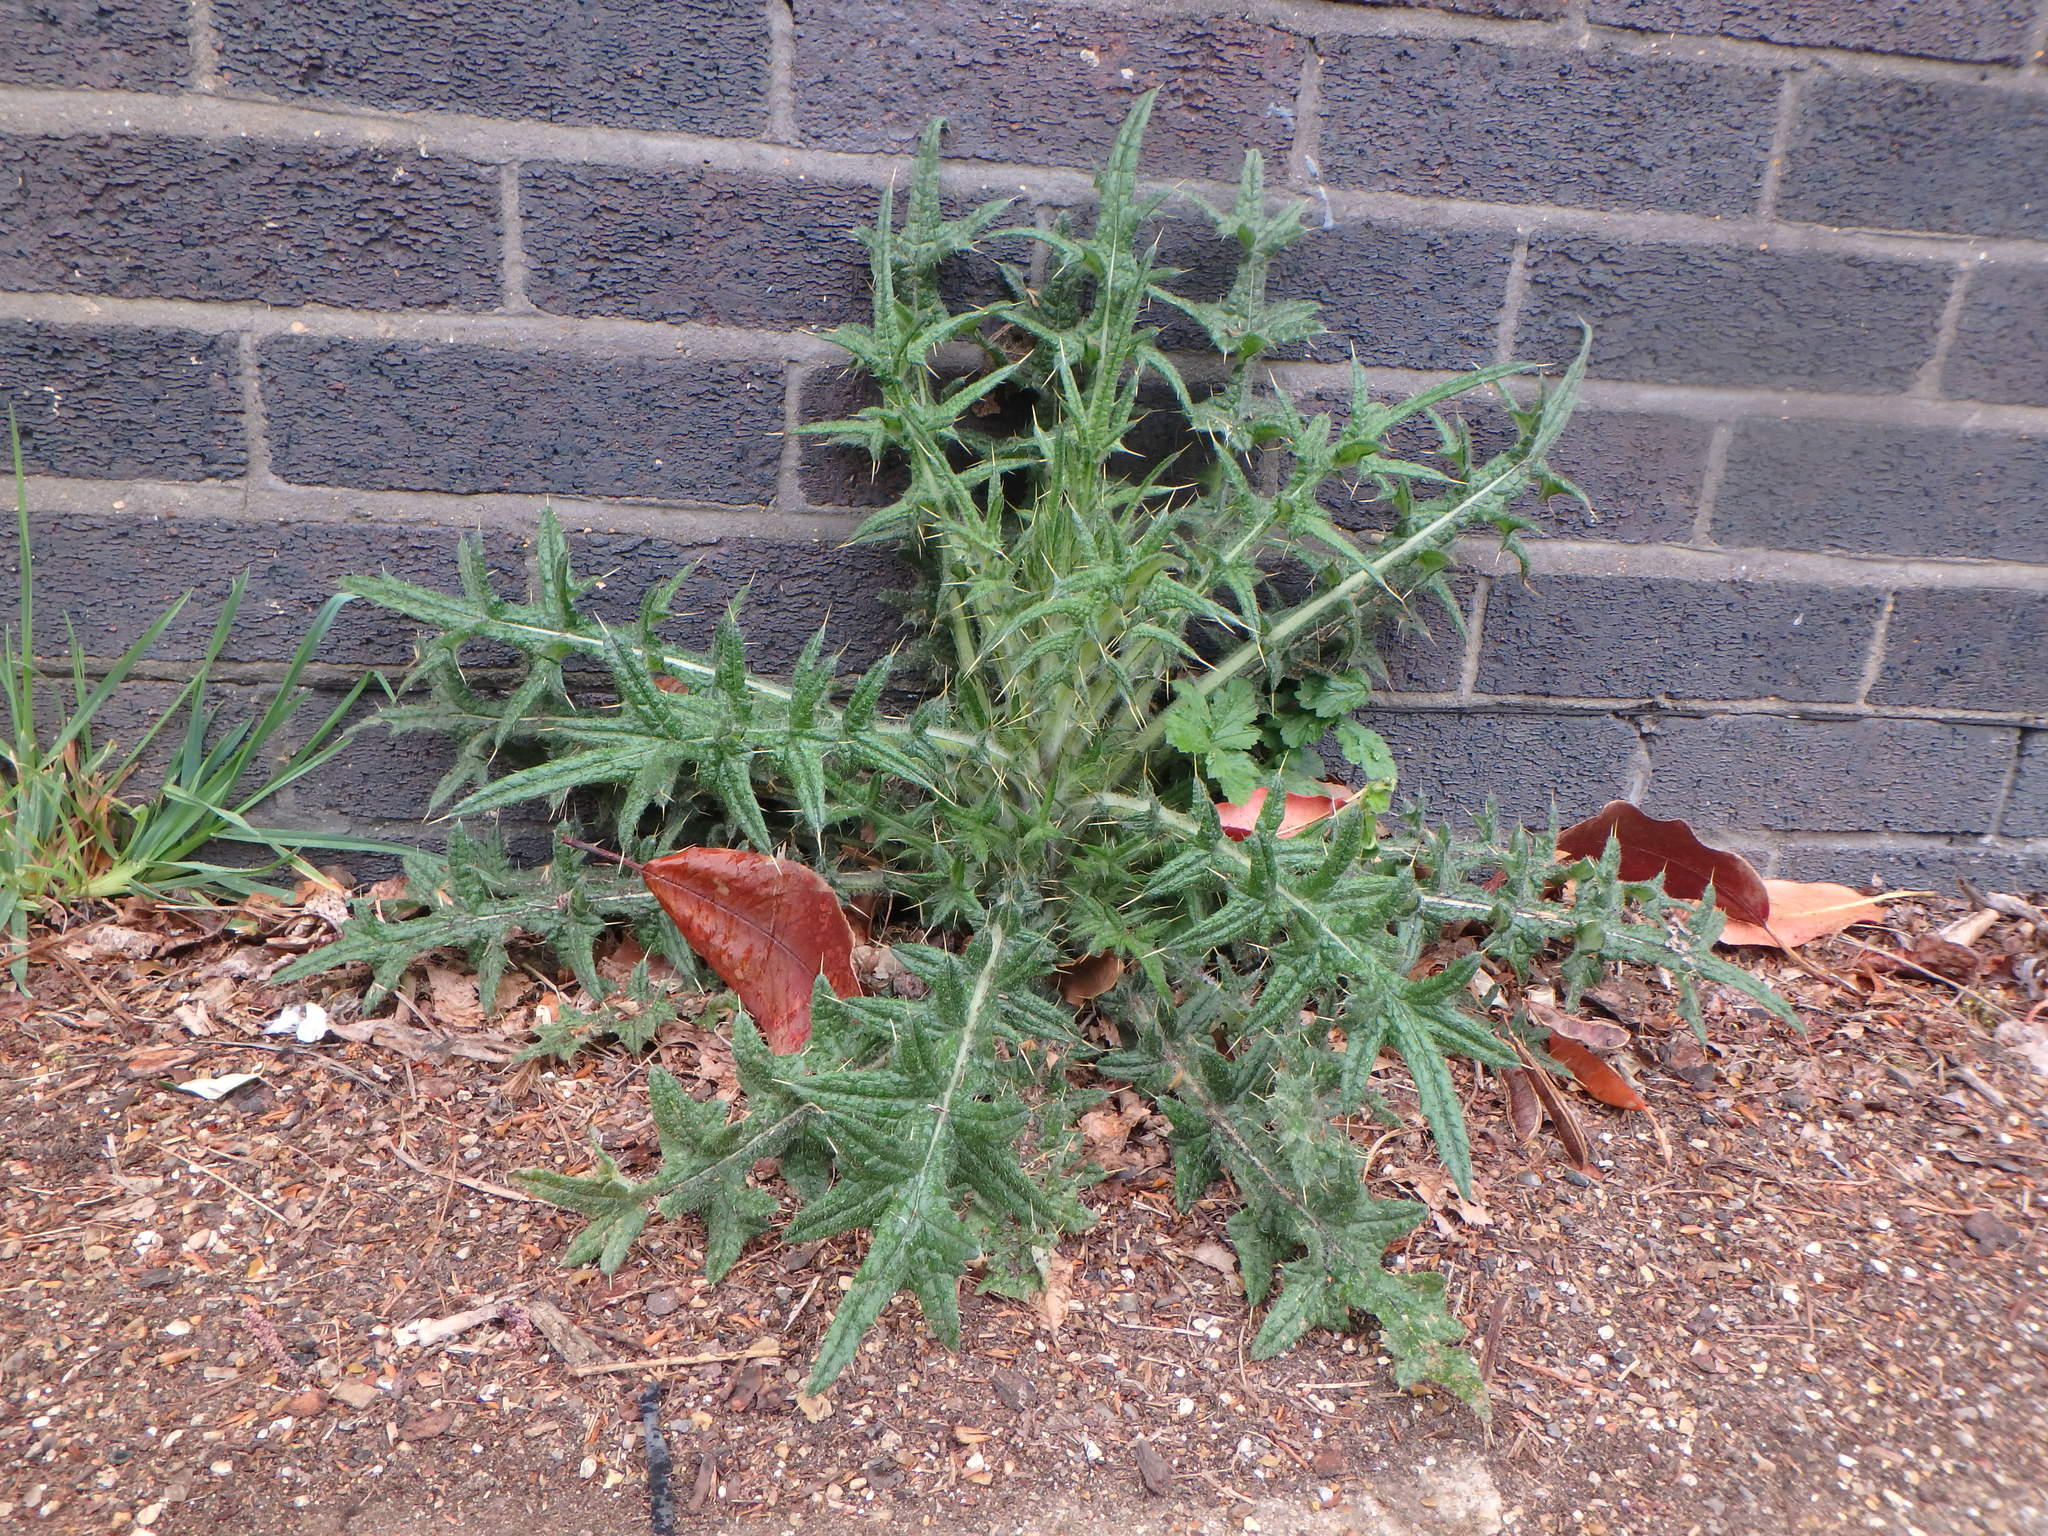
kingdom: Plantae
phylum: Tracheophyta
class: Magnoliopsida
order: Asterales
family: Asteraceae
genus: Cirsium
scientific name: Cirsium vulgare
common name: Bull thistle
